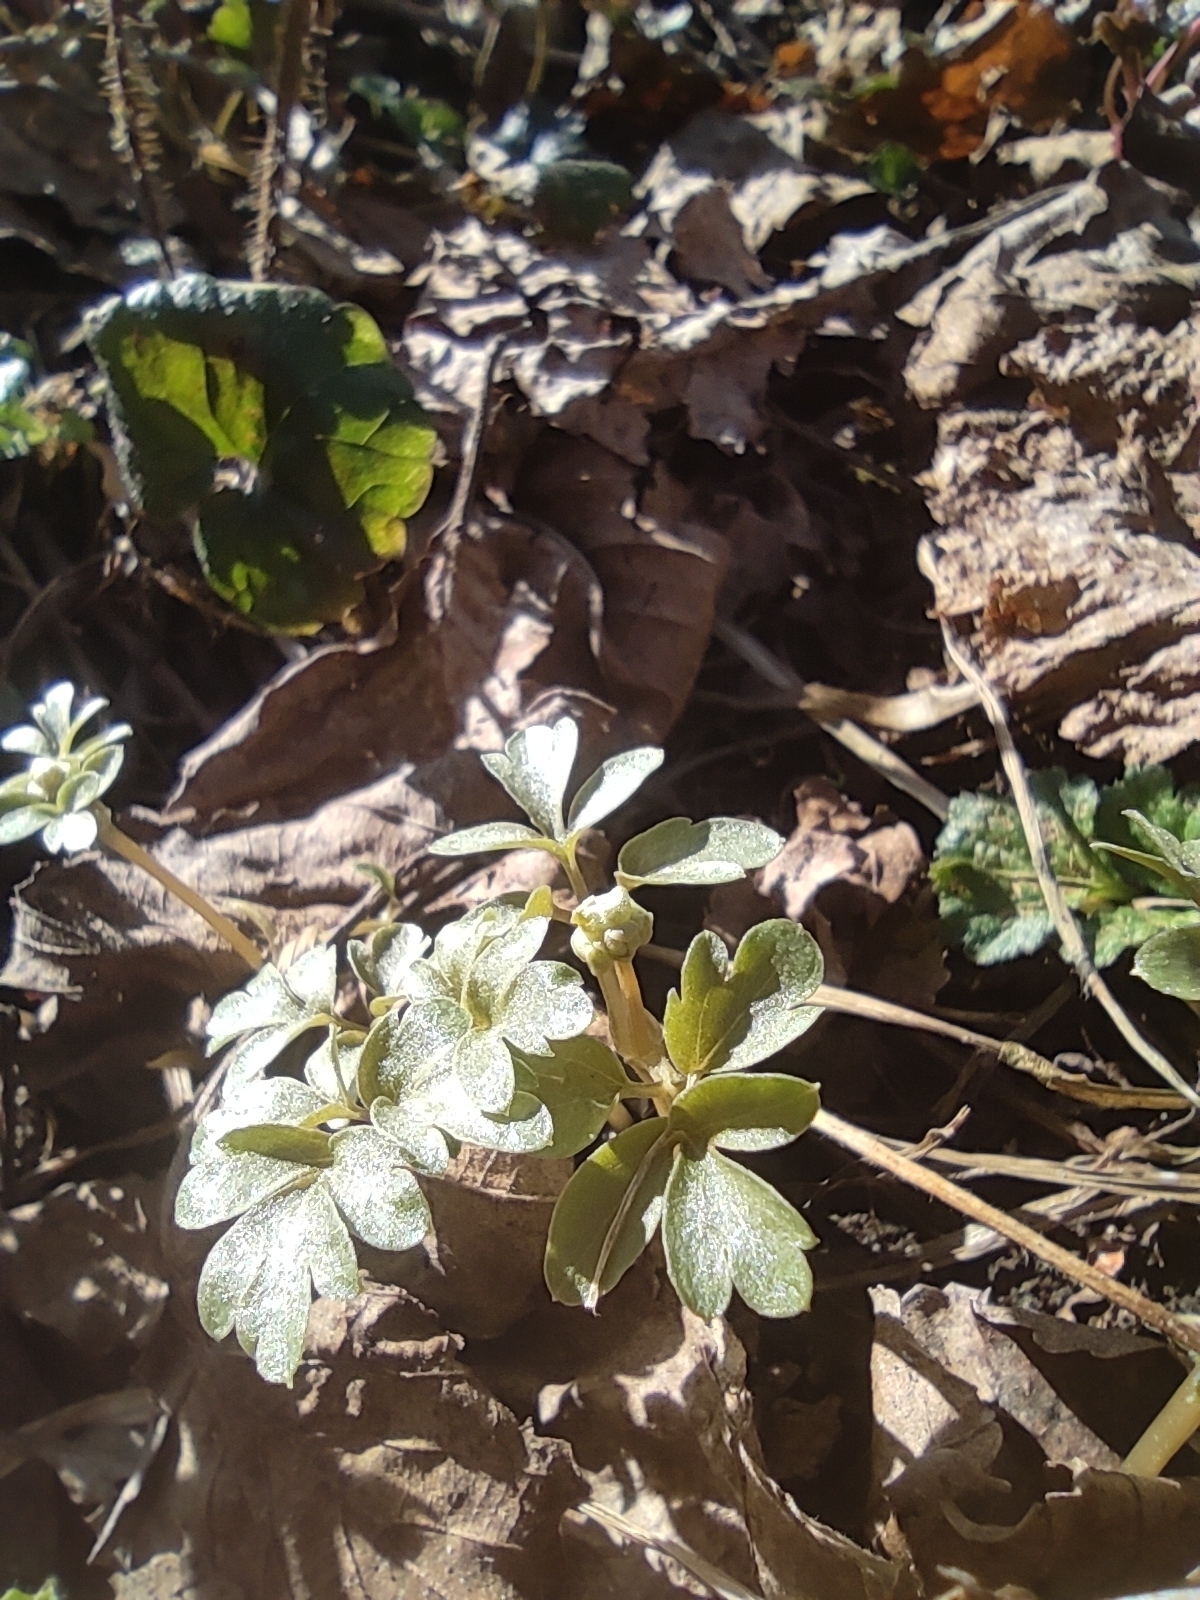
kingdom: Plantae
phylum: Tracheophyta
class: Magnoliopsida
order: Dipsacales
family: Viburnaceae
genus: Adoxa
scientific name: Adoxa moschatellina
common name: Moschatel
